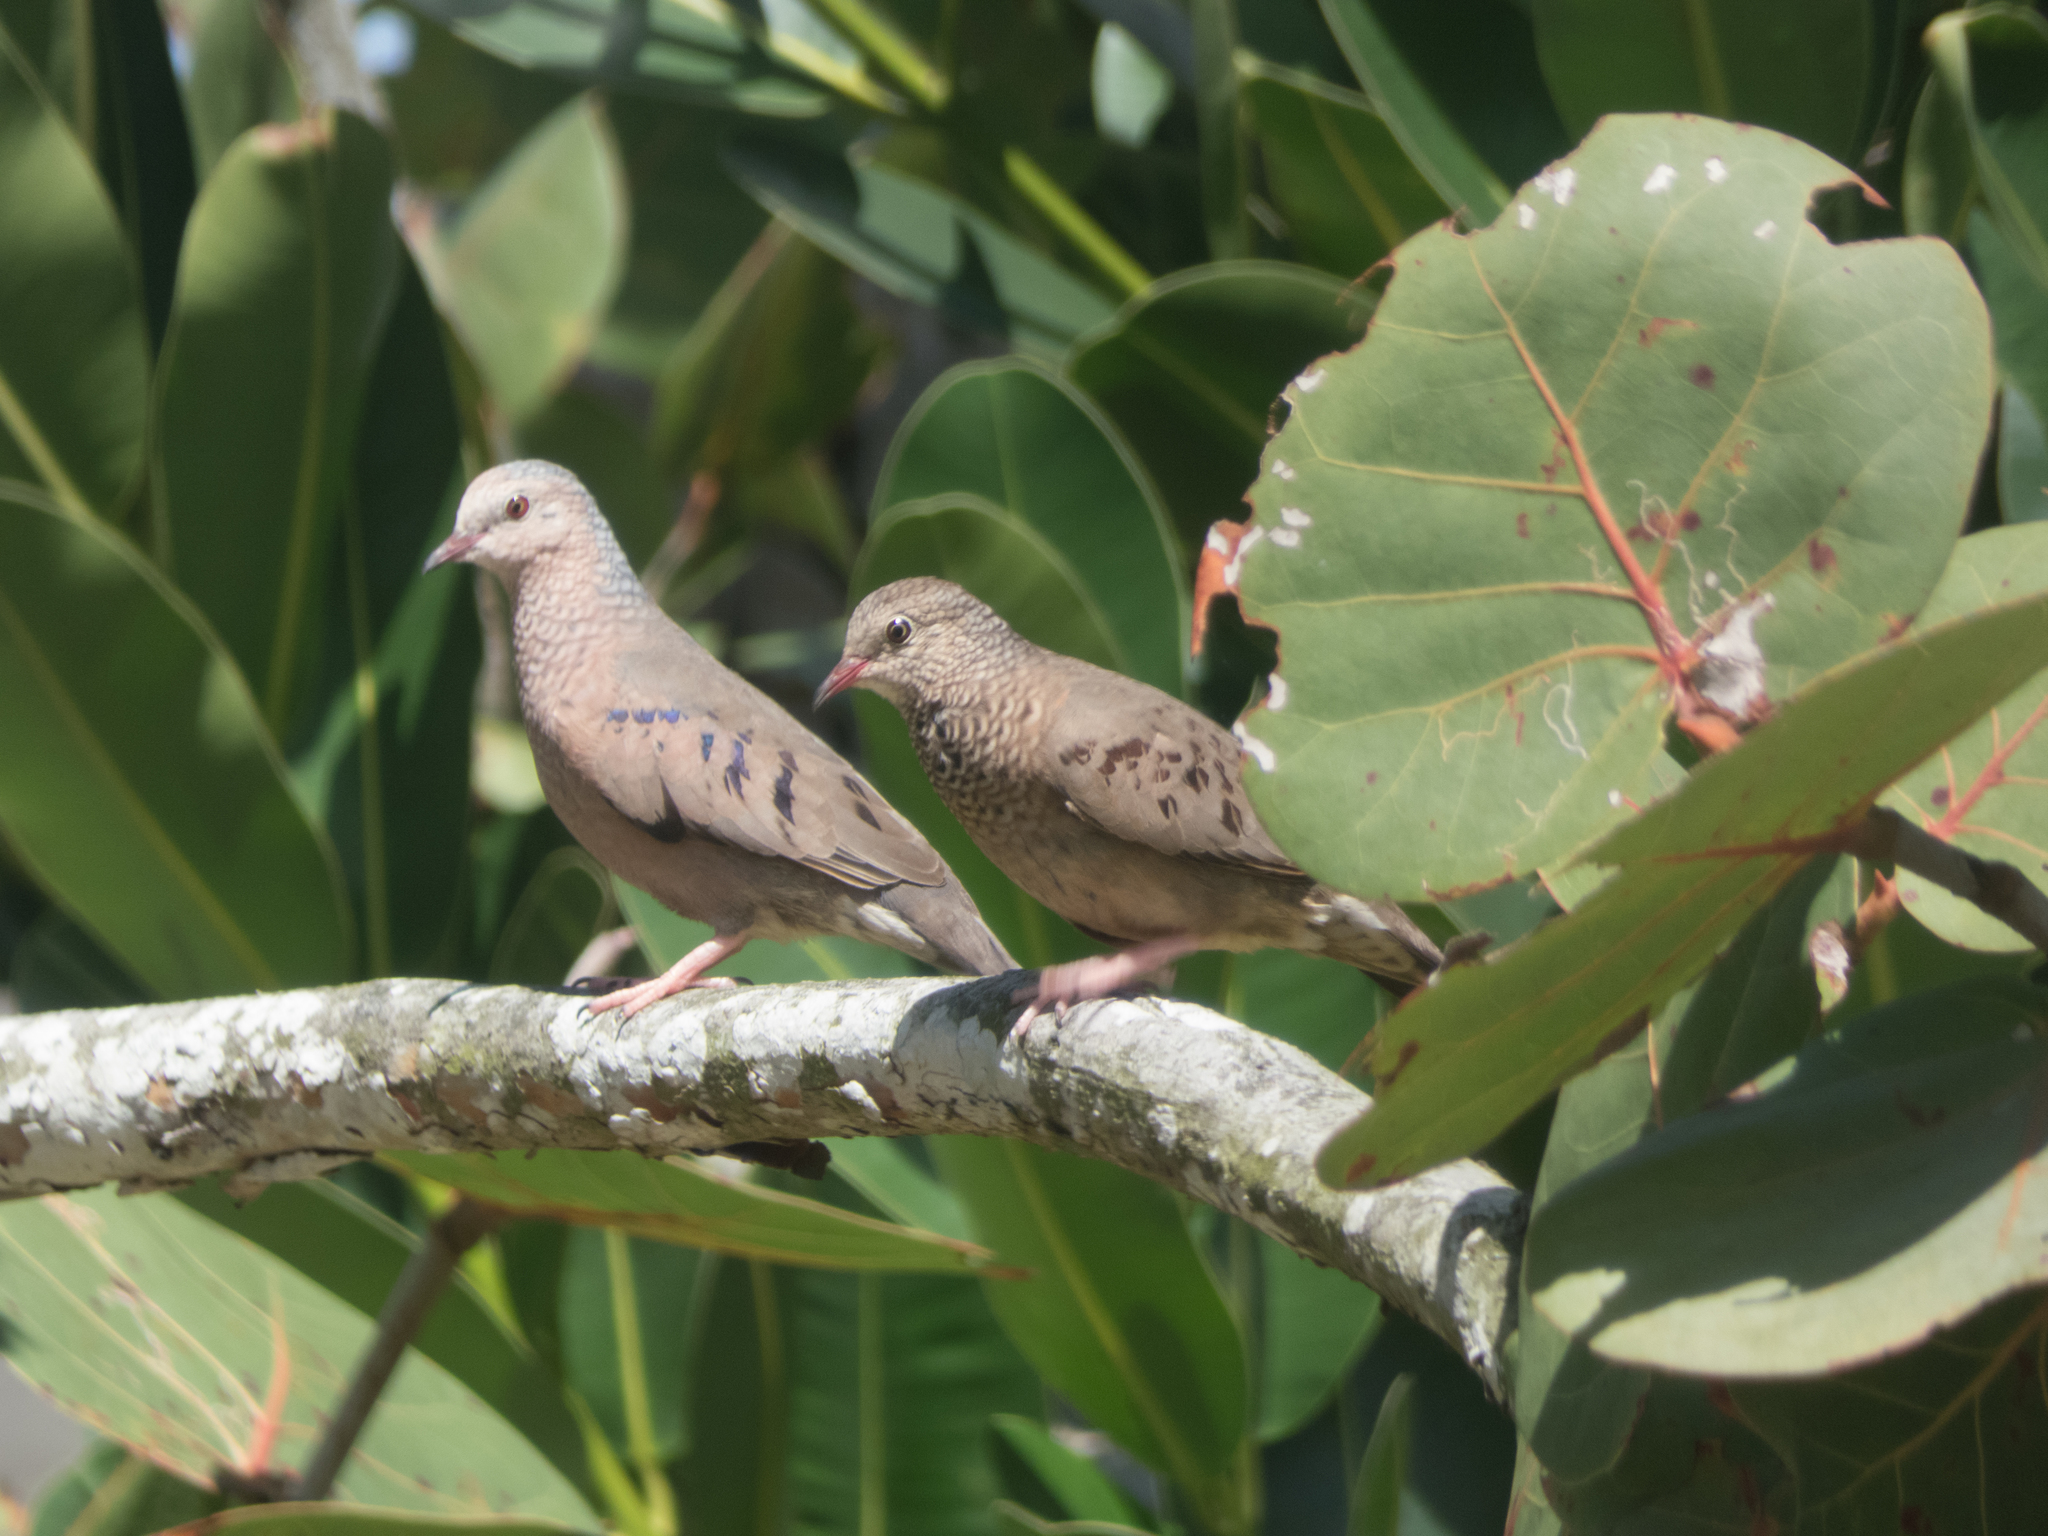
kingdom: Animalia
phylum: Chordata
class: Aves
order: Columbiformes
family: Columbidae
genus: Columbina
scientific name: Columbina passerina
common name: Common ground-dove
